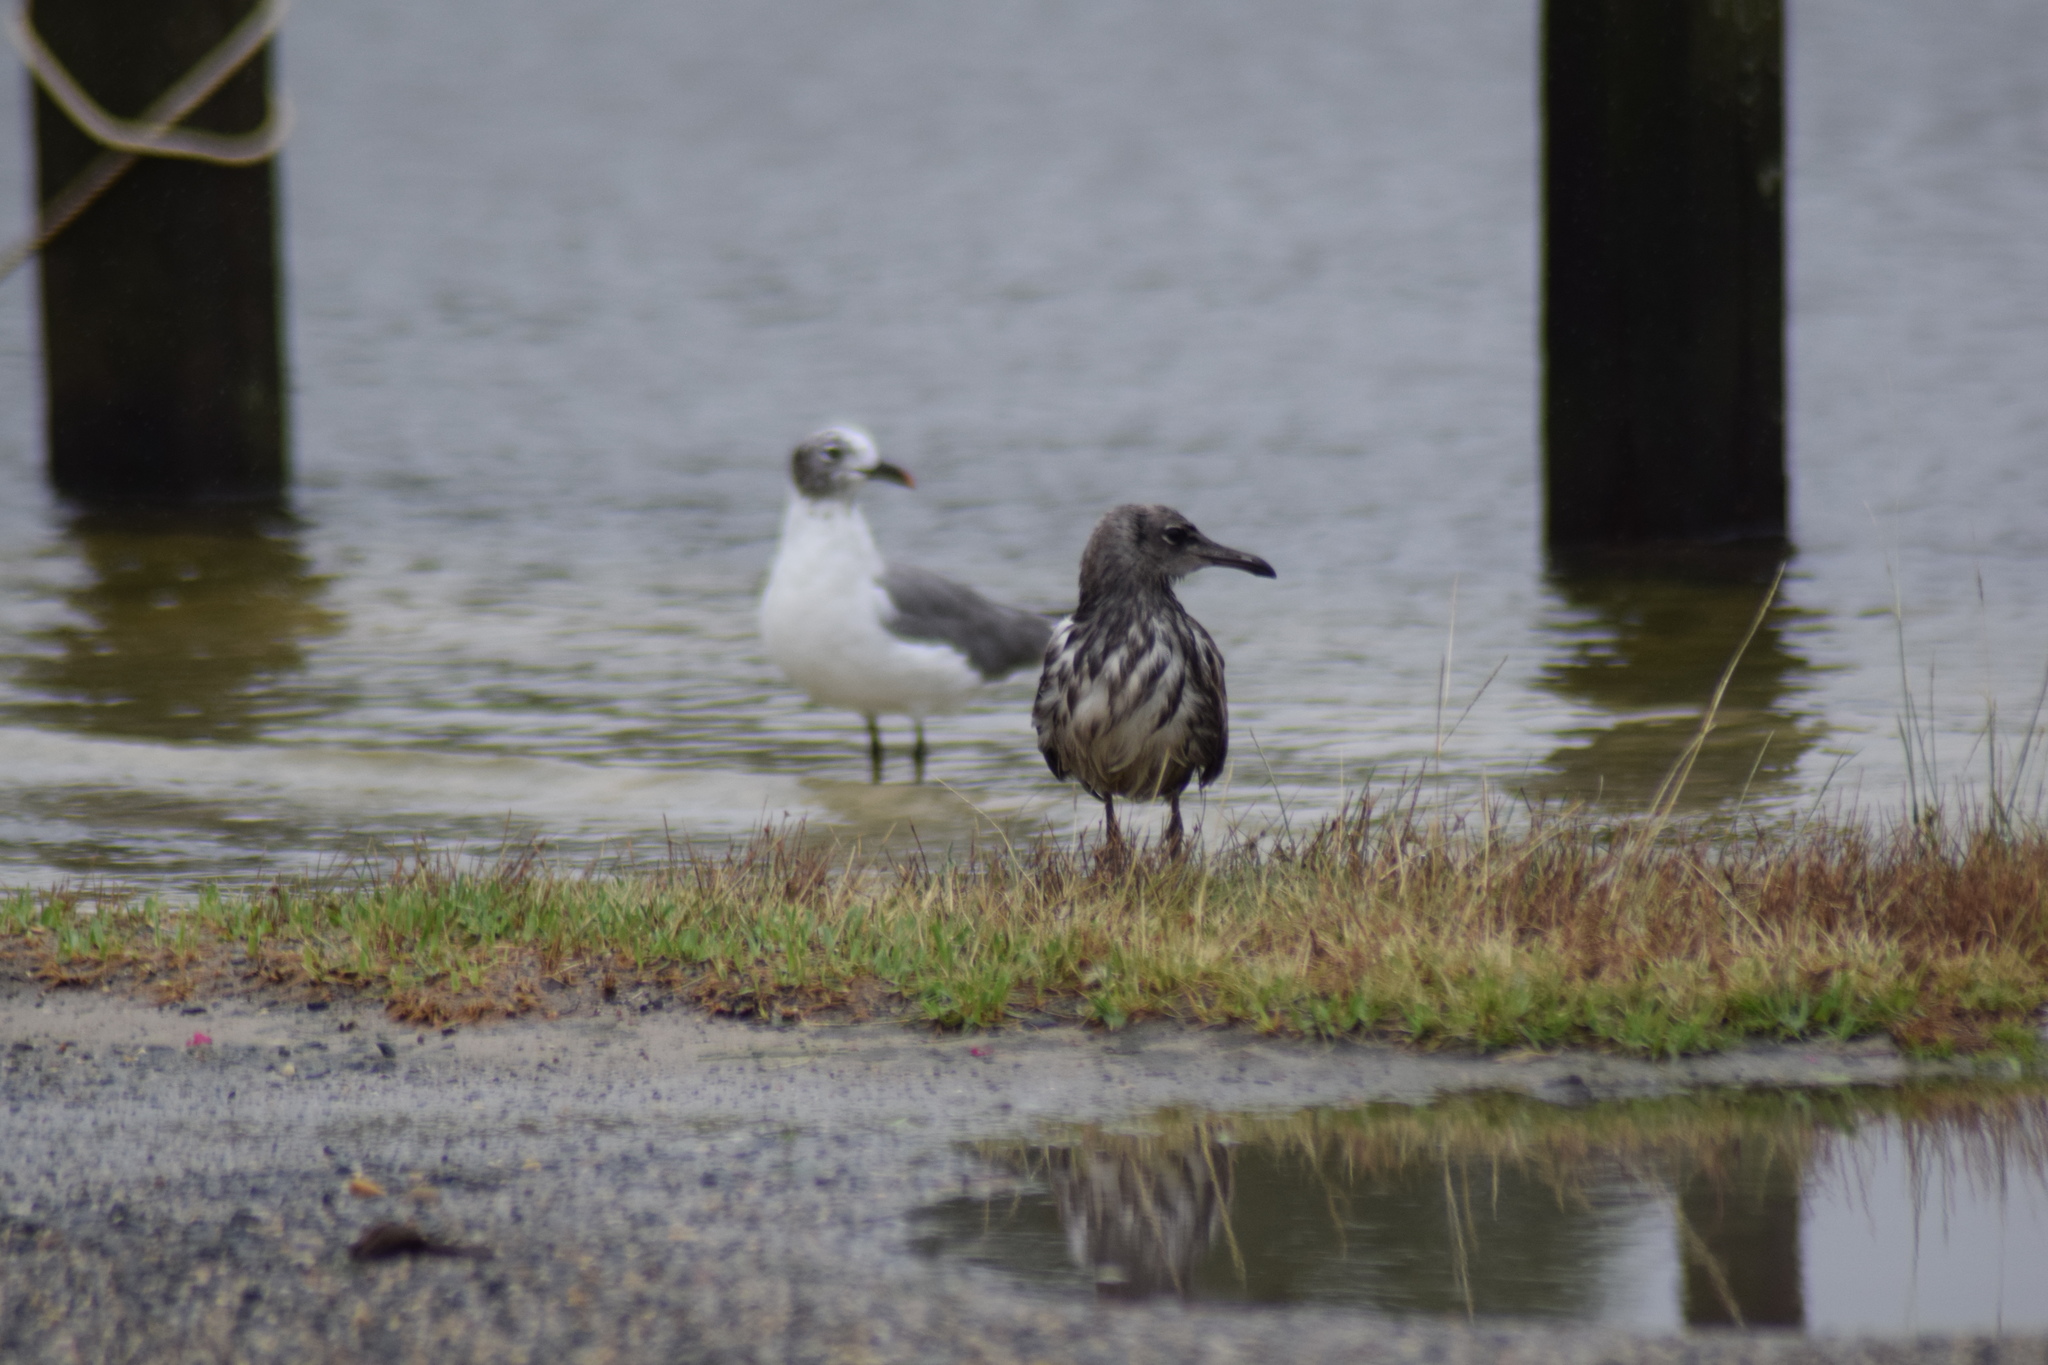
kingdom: Animalia
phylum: Chordata
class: Aves
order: Charadriiformes
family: Laridae
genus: Leucophaeus
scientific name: Leucophaeus atricilla
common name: Laughing gull
